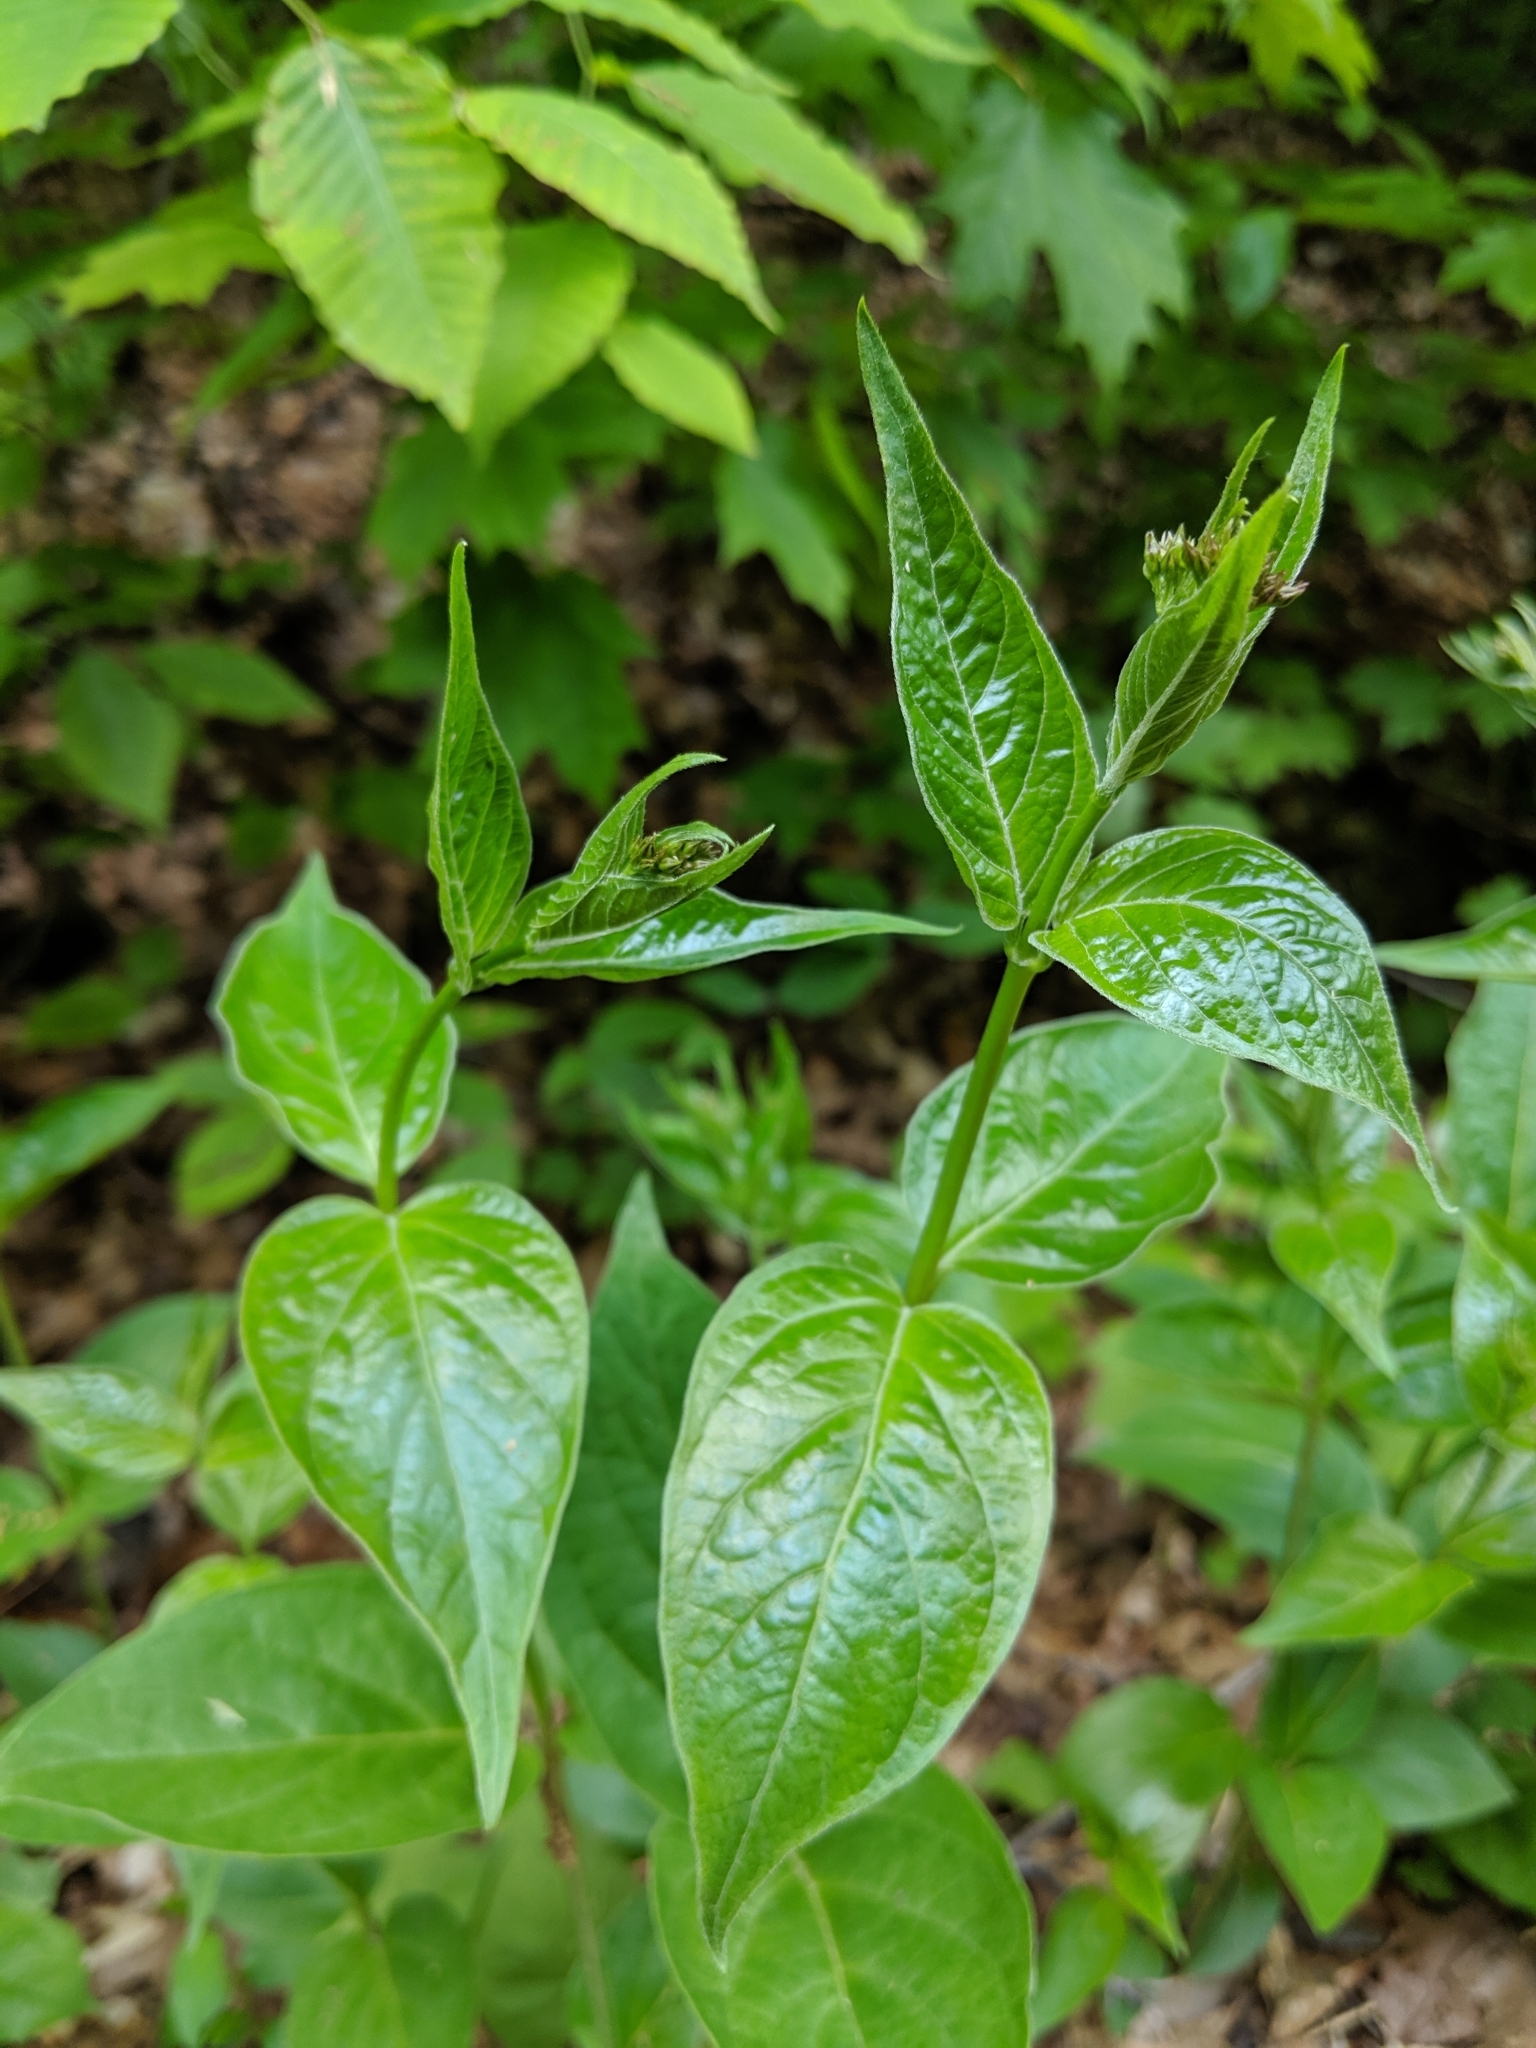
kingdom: Plantae
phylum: Tracheophyta
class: Magnoliopsida
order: Gentianales
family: Apocynaceae
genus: Vincetoxicum
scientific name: Vincetoxicum rossicum
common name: Dog-strangling vine
